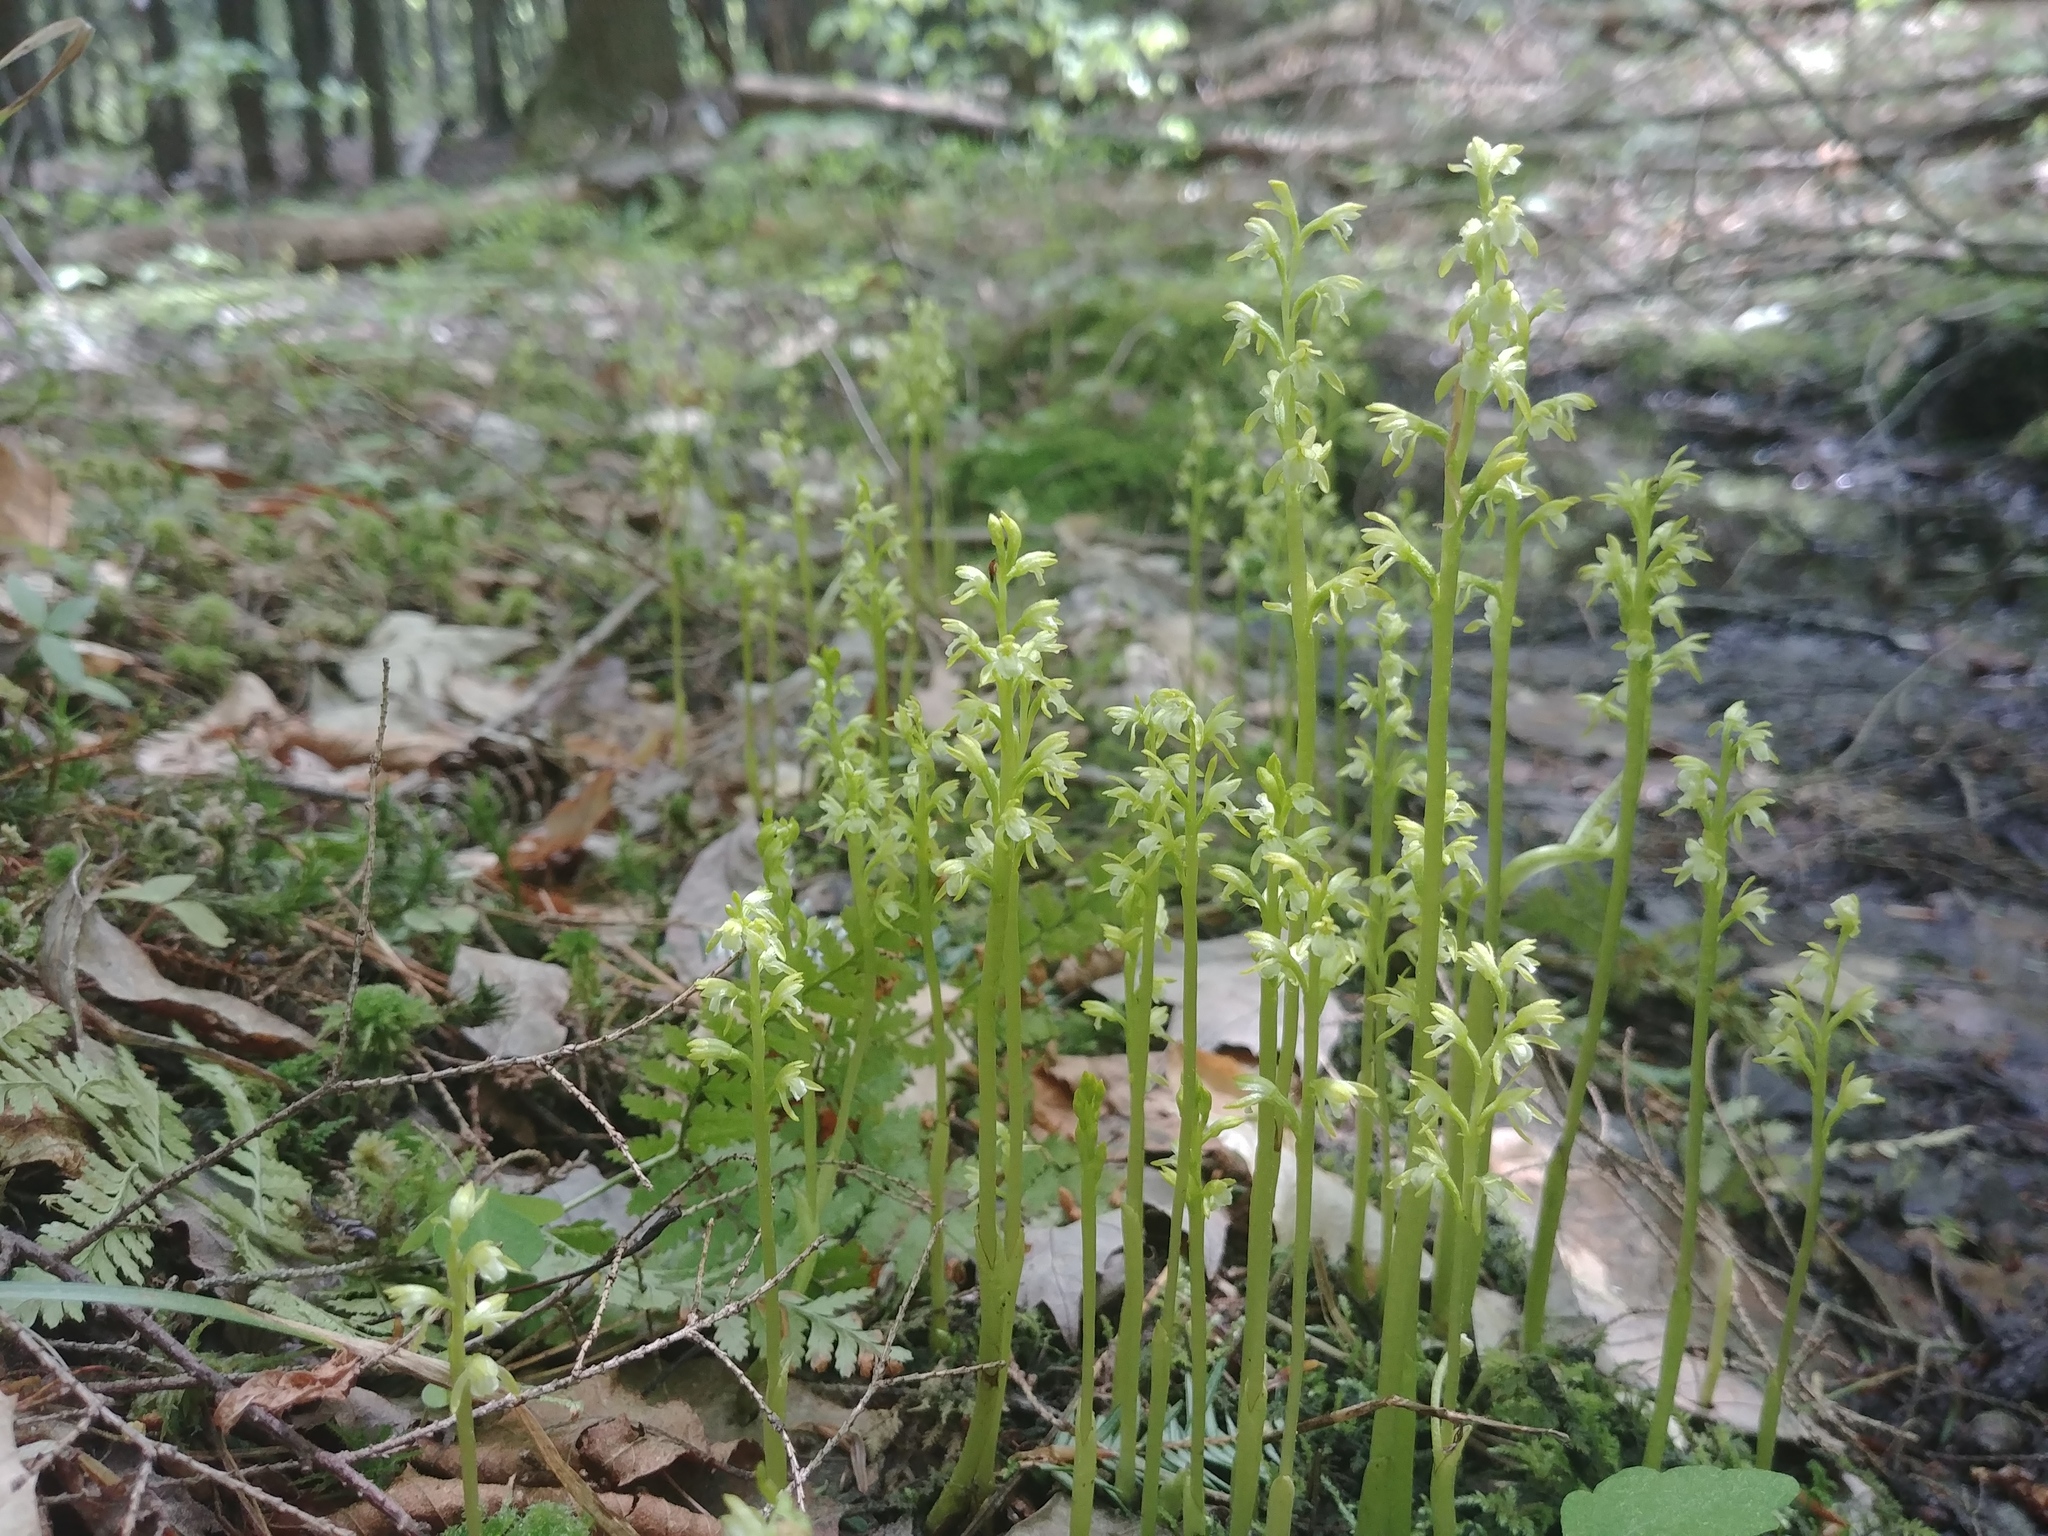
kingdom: Plantae
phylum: Tracheophyta
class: Liliopsida
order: Asparagales
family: Orchidaceae
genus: Corallorhiza
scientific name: Corallorhiza trifida
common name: Yellow coralroot
